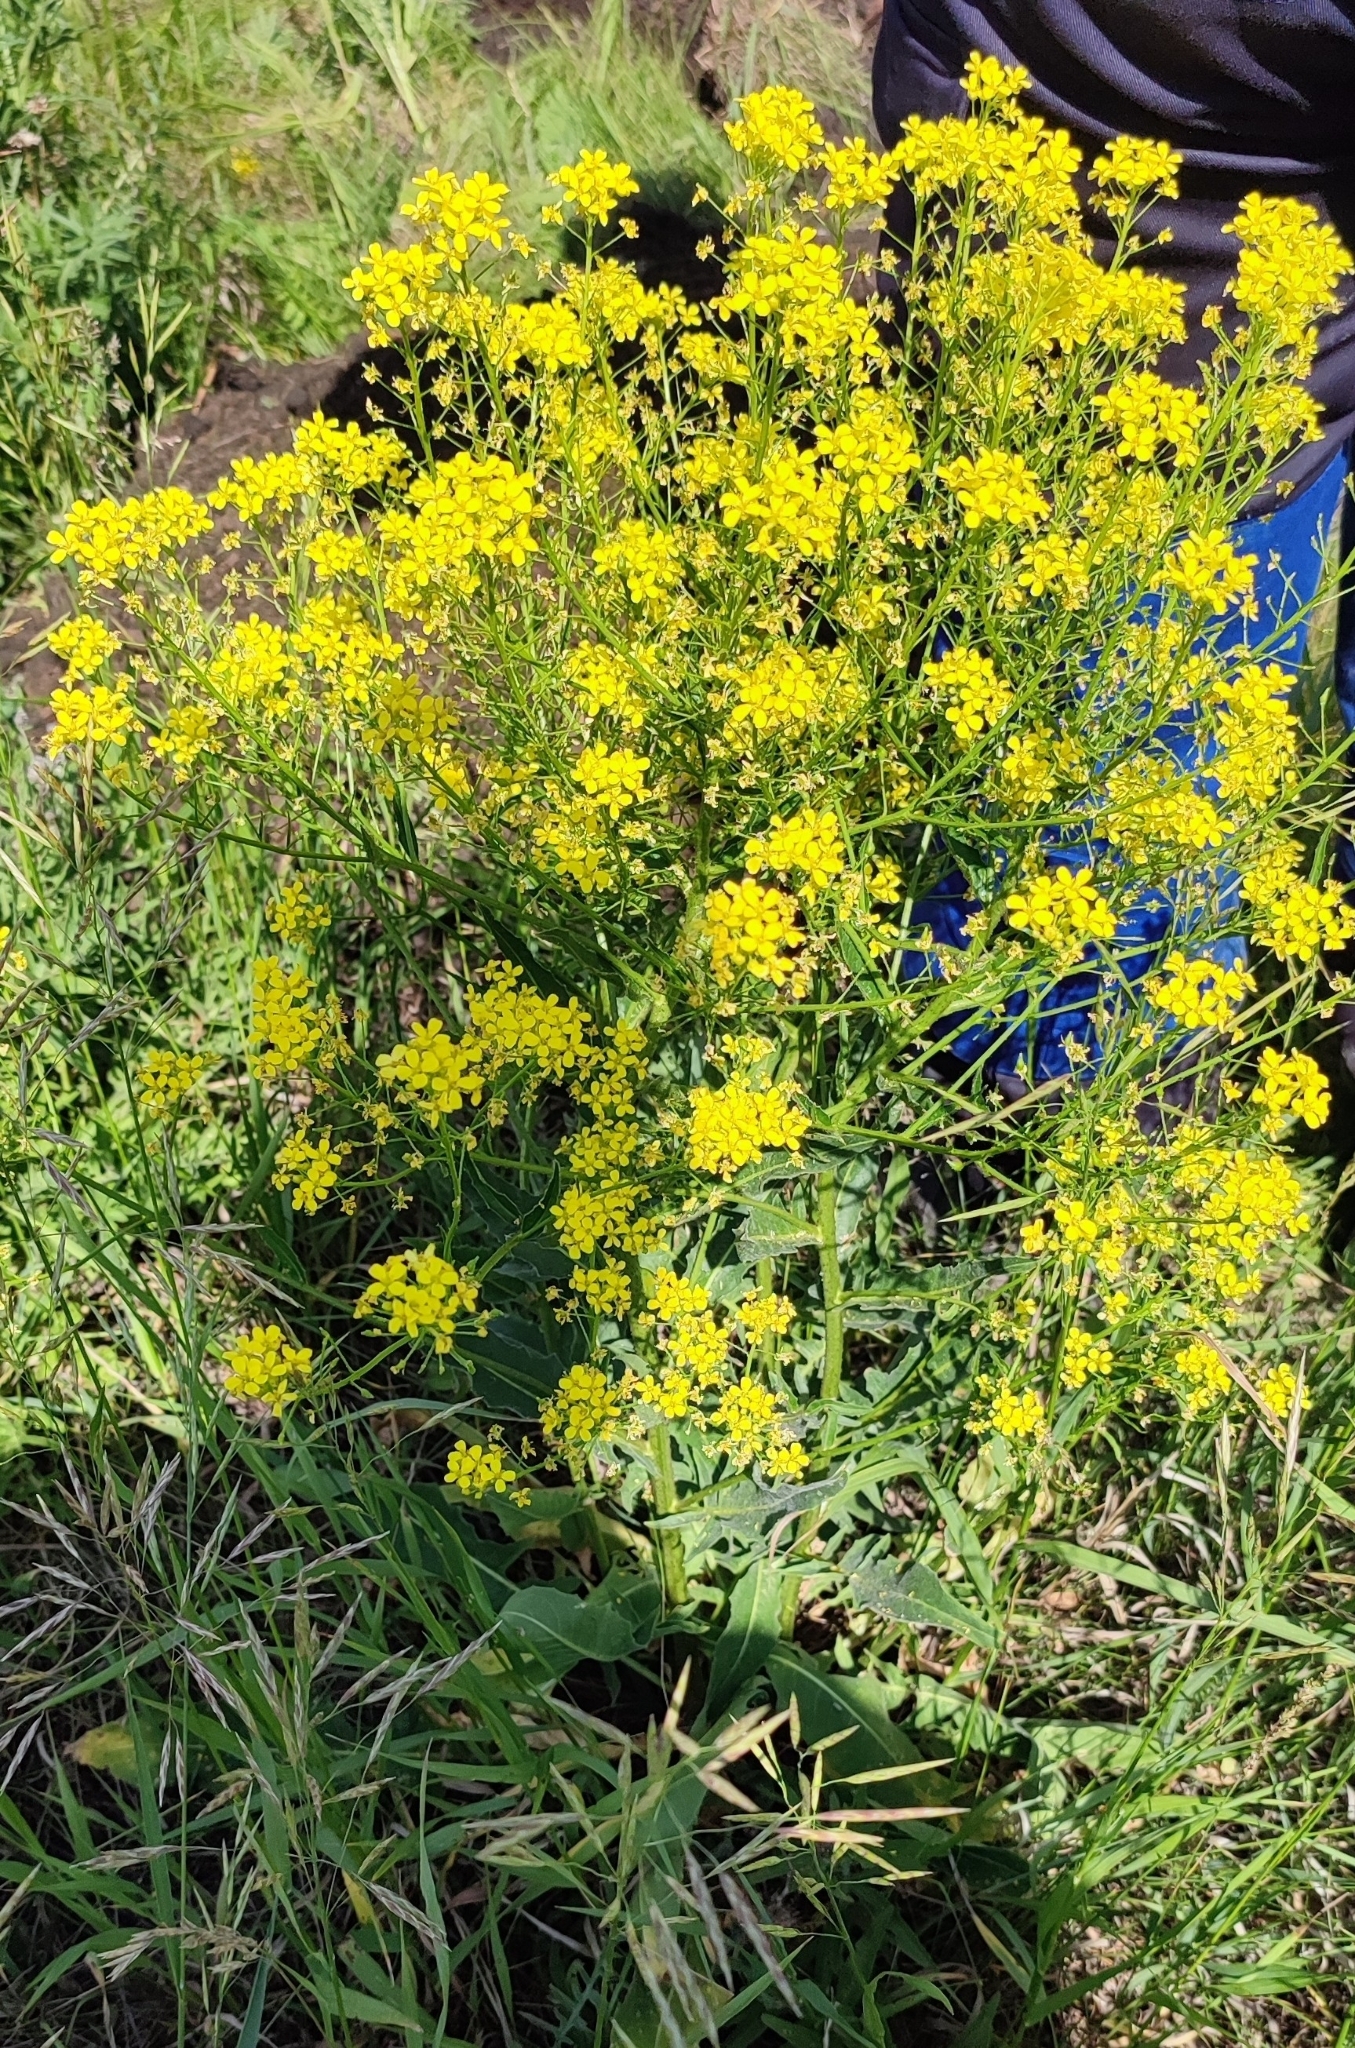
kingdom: Plantae
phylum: Tracheophyta
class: Magnoliopsida
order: Brassicales
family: Brassicaceae
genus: Bunias
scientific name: Bunias orientalis
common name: Warty-cabbage
